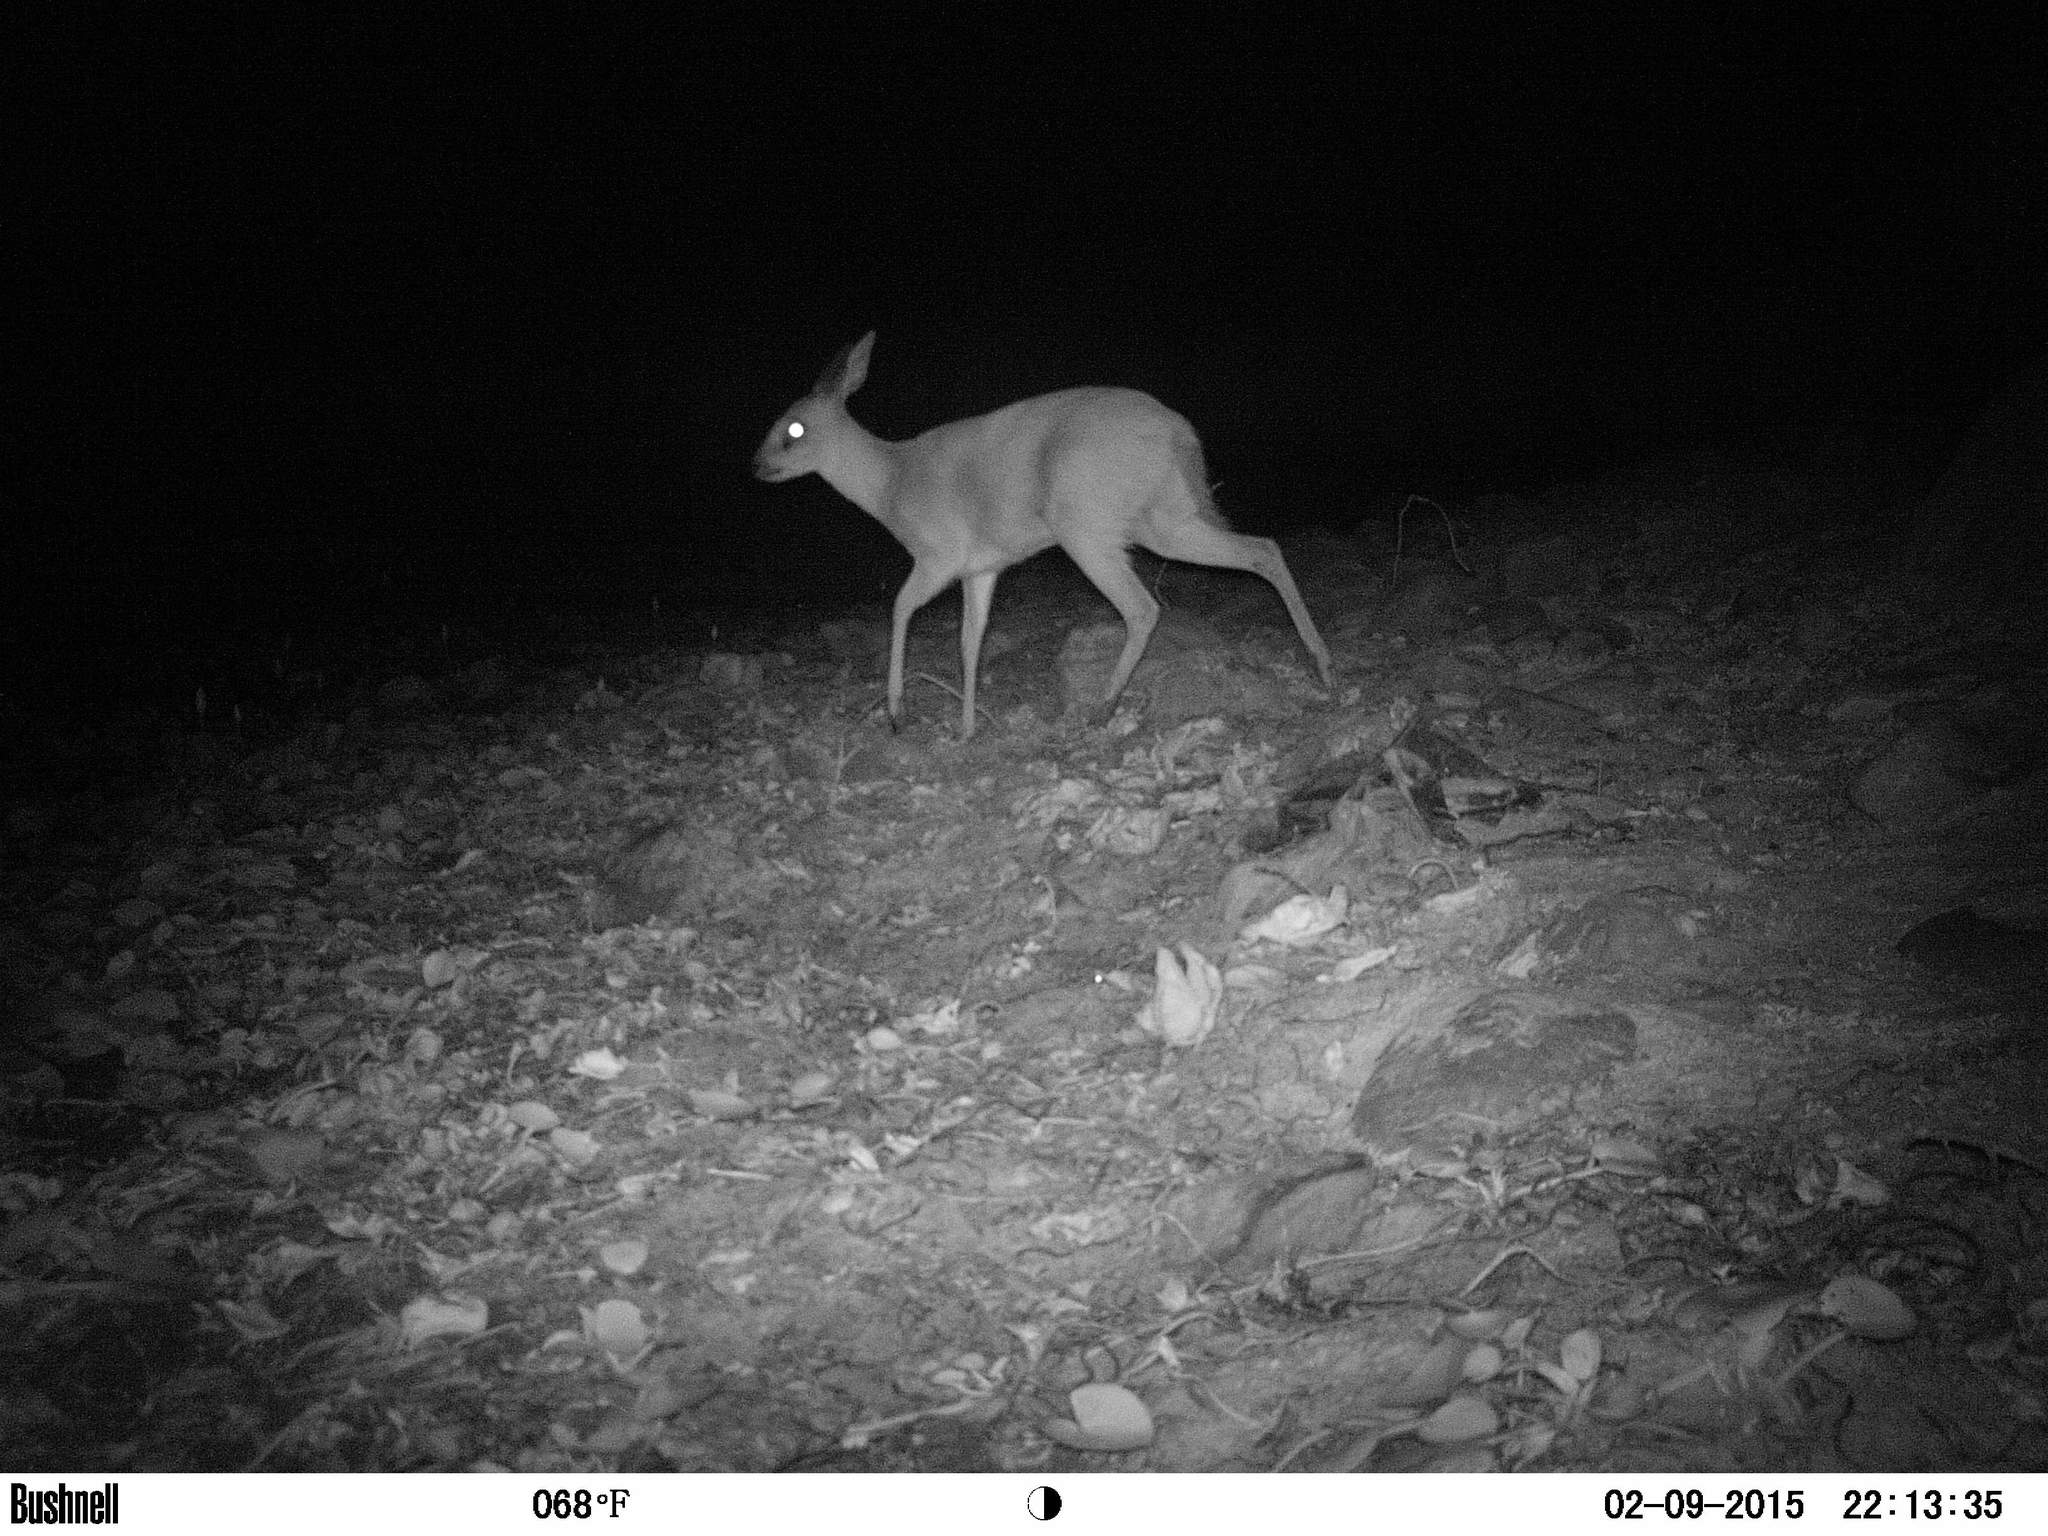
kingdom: Animalia
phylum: Chordata
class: Mammalia
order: Artiodactyla
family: Bovidae
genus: Raphicerus
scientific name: Raphicerus melanotis
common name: Cape grysbok
